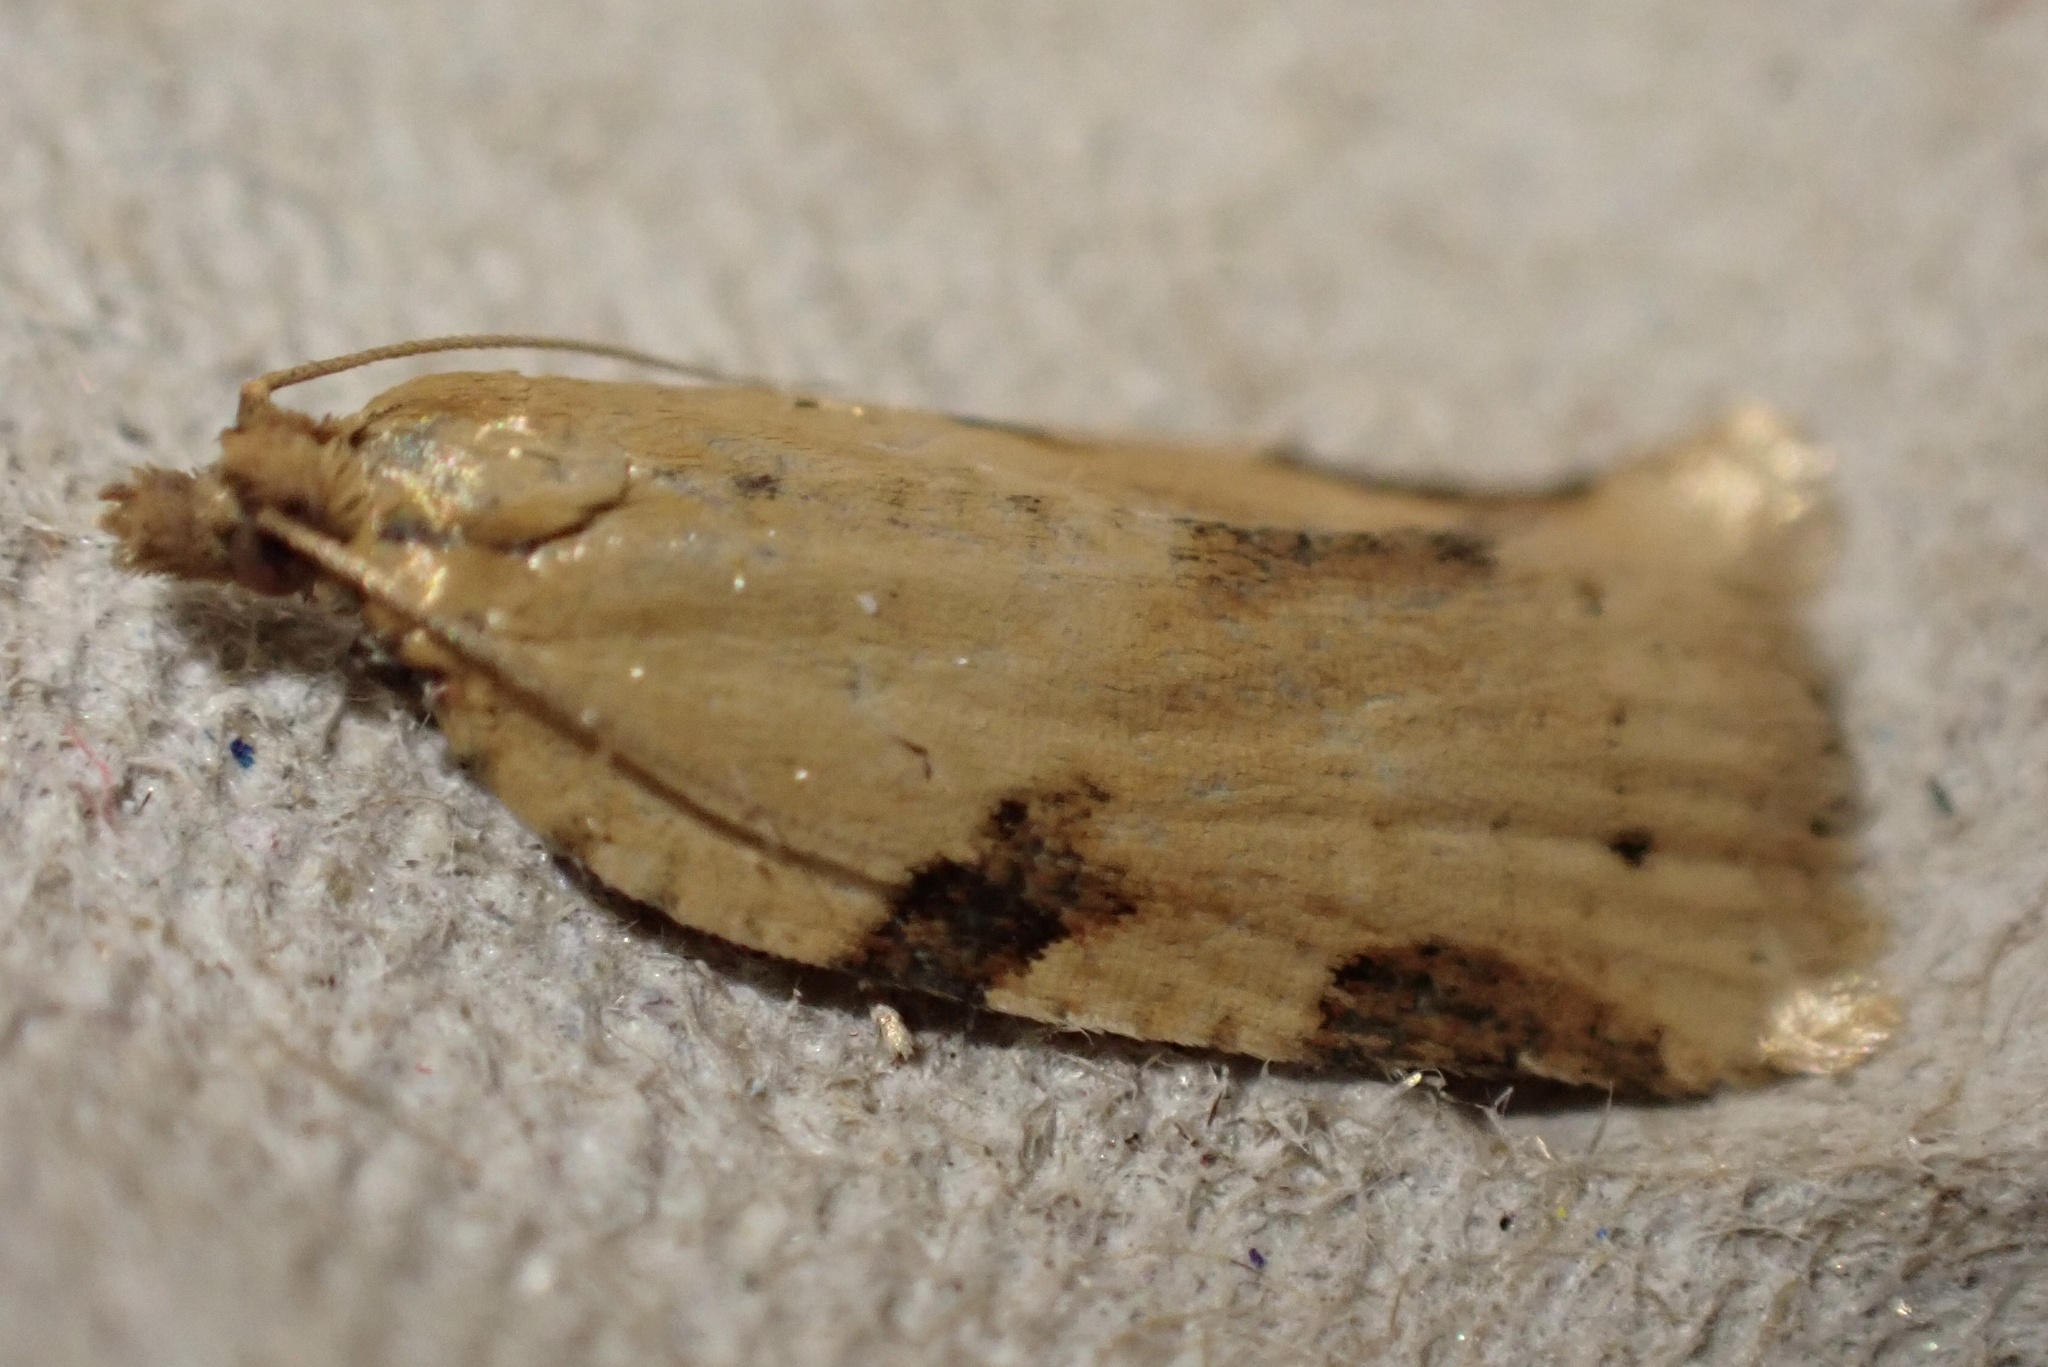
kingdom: Animalia
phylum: Arthropoda
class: Insecta
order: Lepidoptera
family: Tortricidae
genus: Clepsis
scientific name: Clepsis spectrana
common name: Cyclamen tortrix
